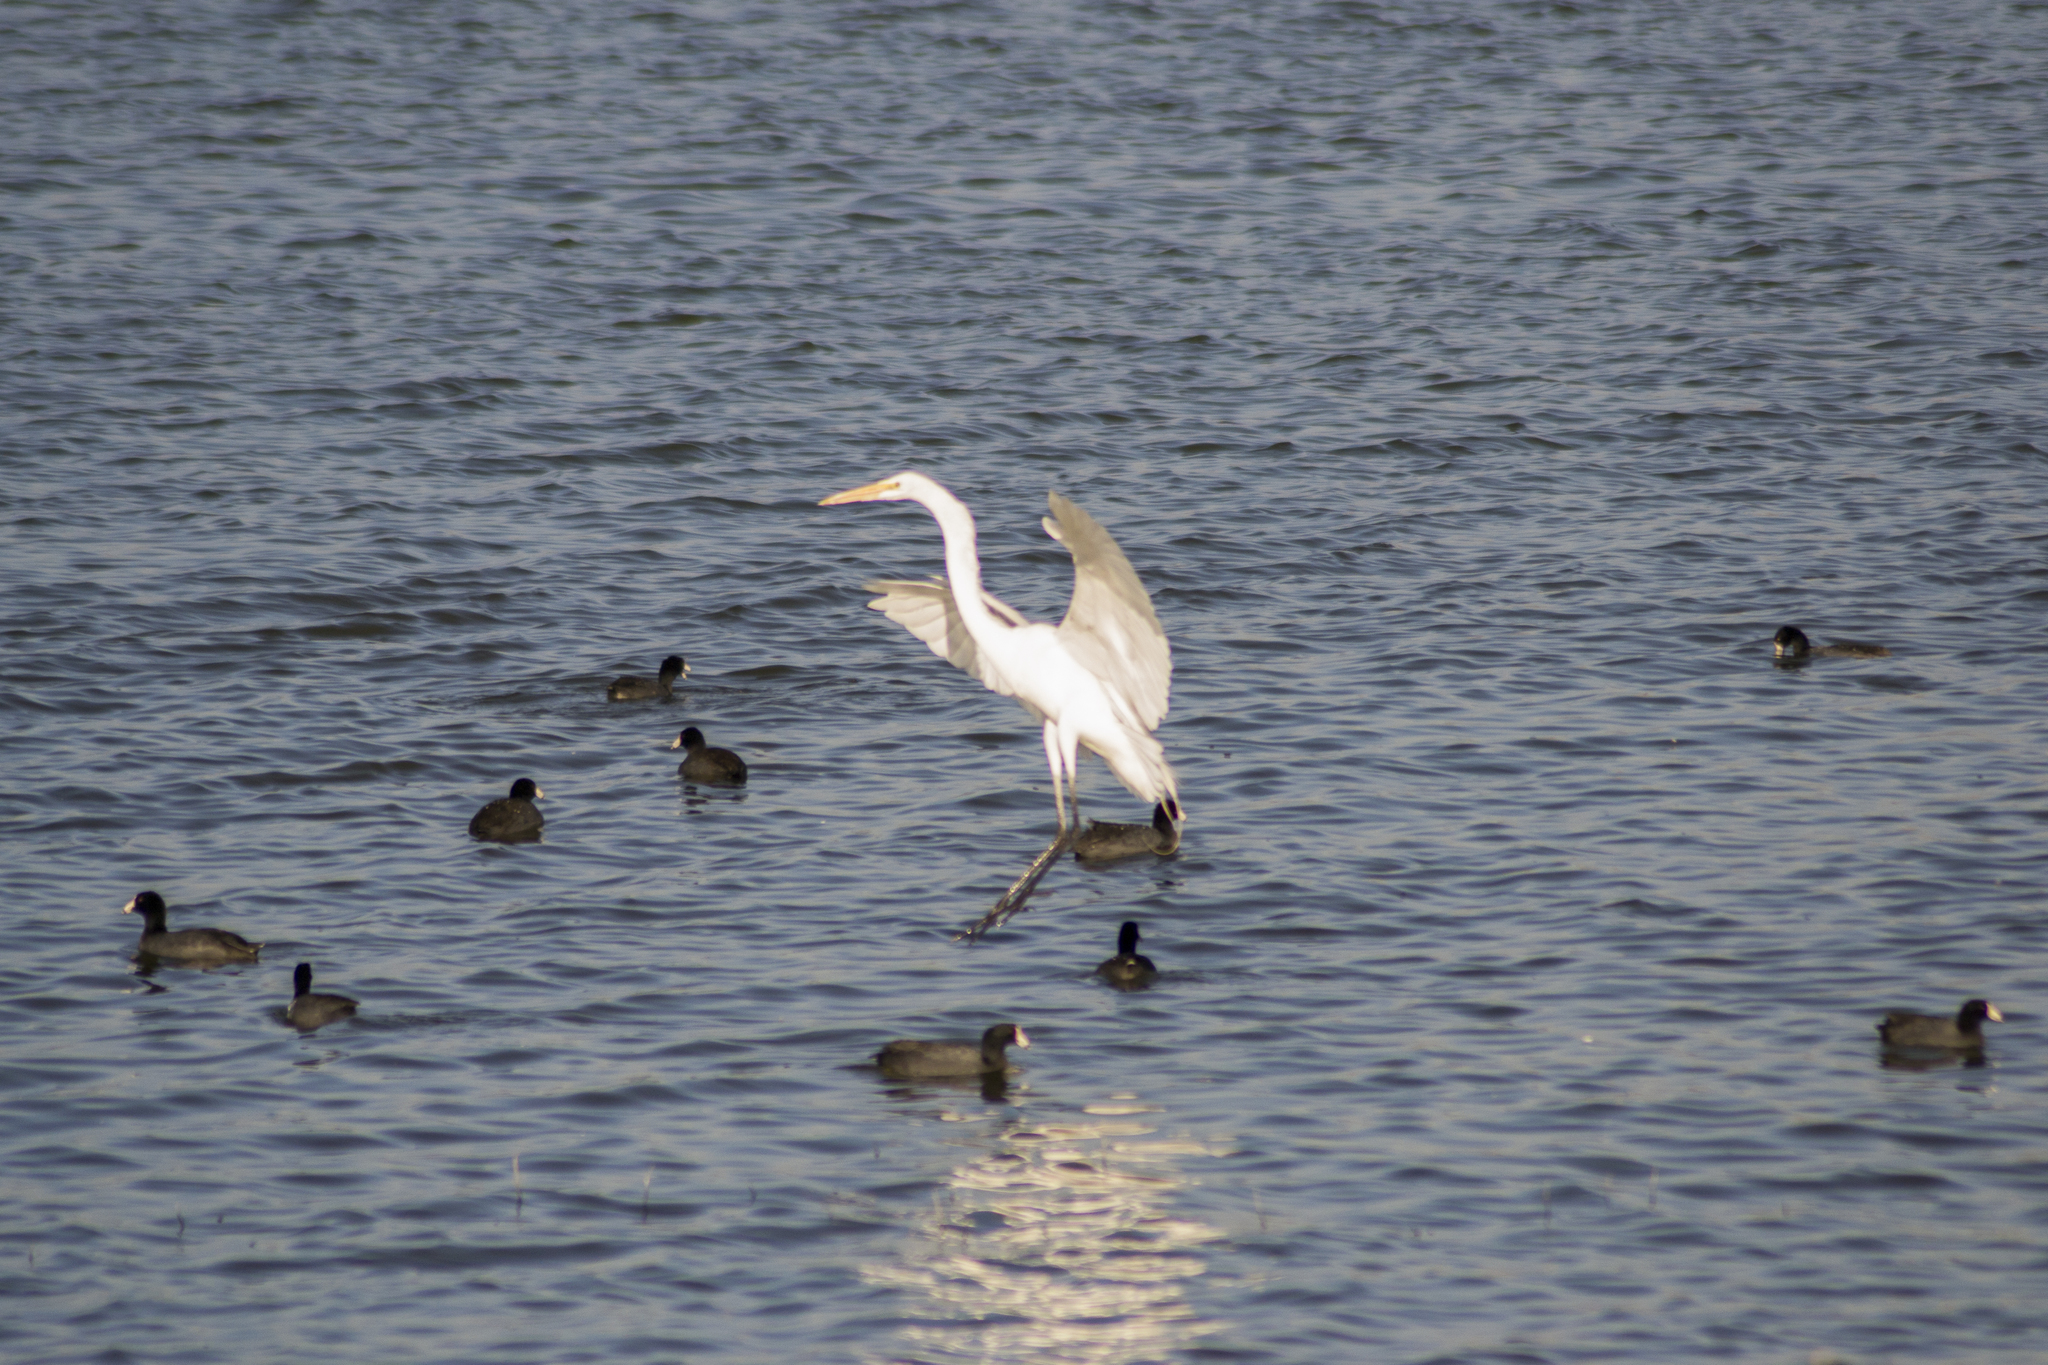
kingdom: Animalia
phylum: Chordata
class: Aves
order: Pelecaniformes
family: Ardeidae
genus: Ardea
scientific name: Ardea alba
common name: Great egret
